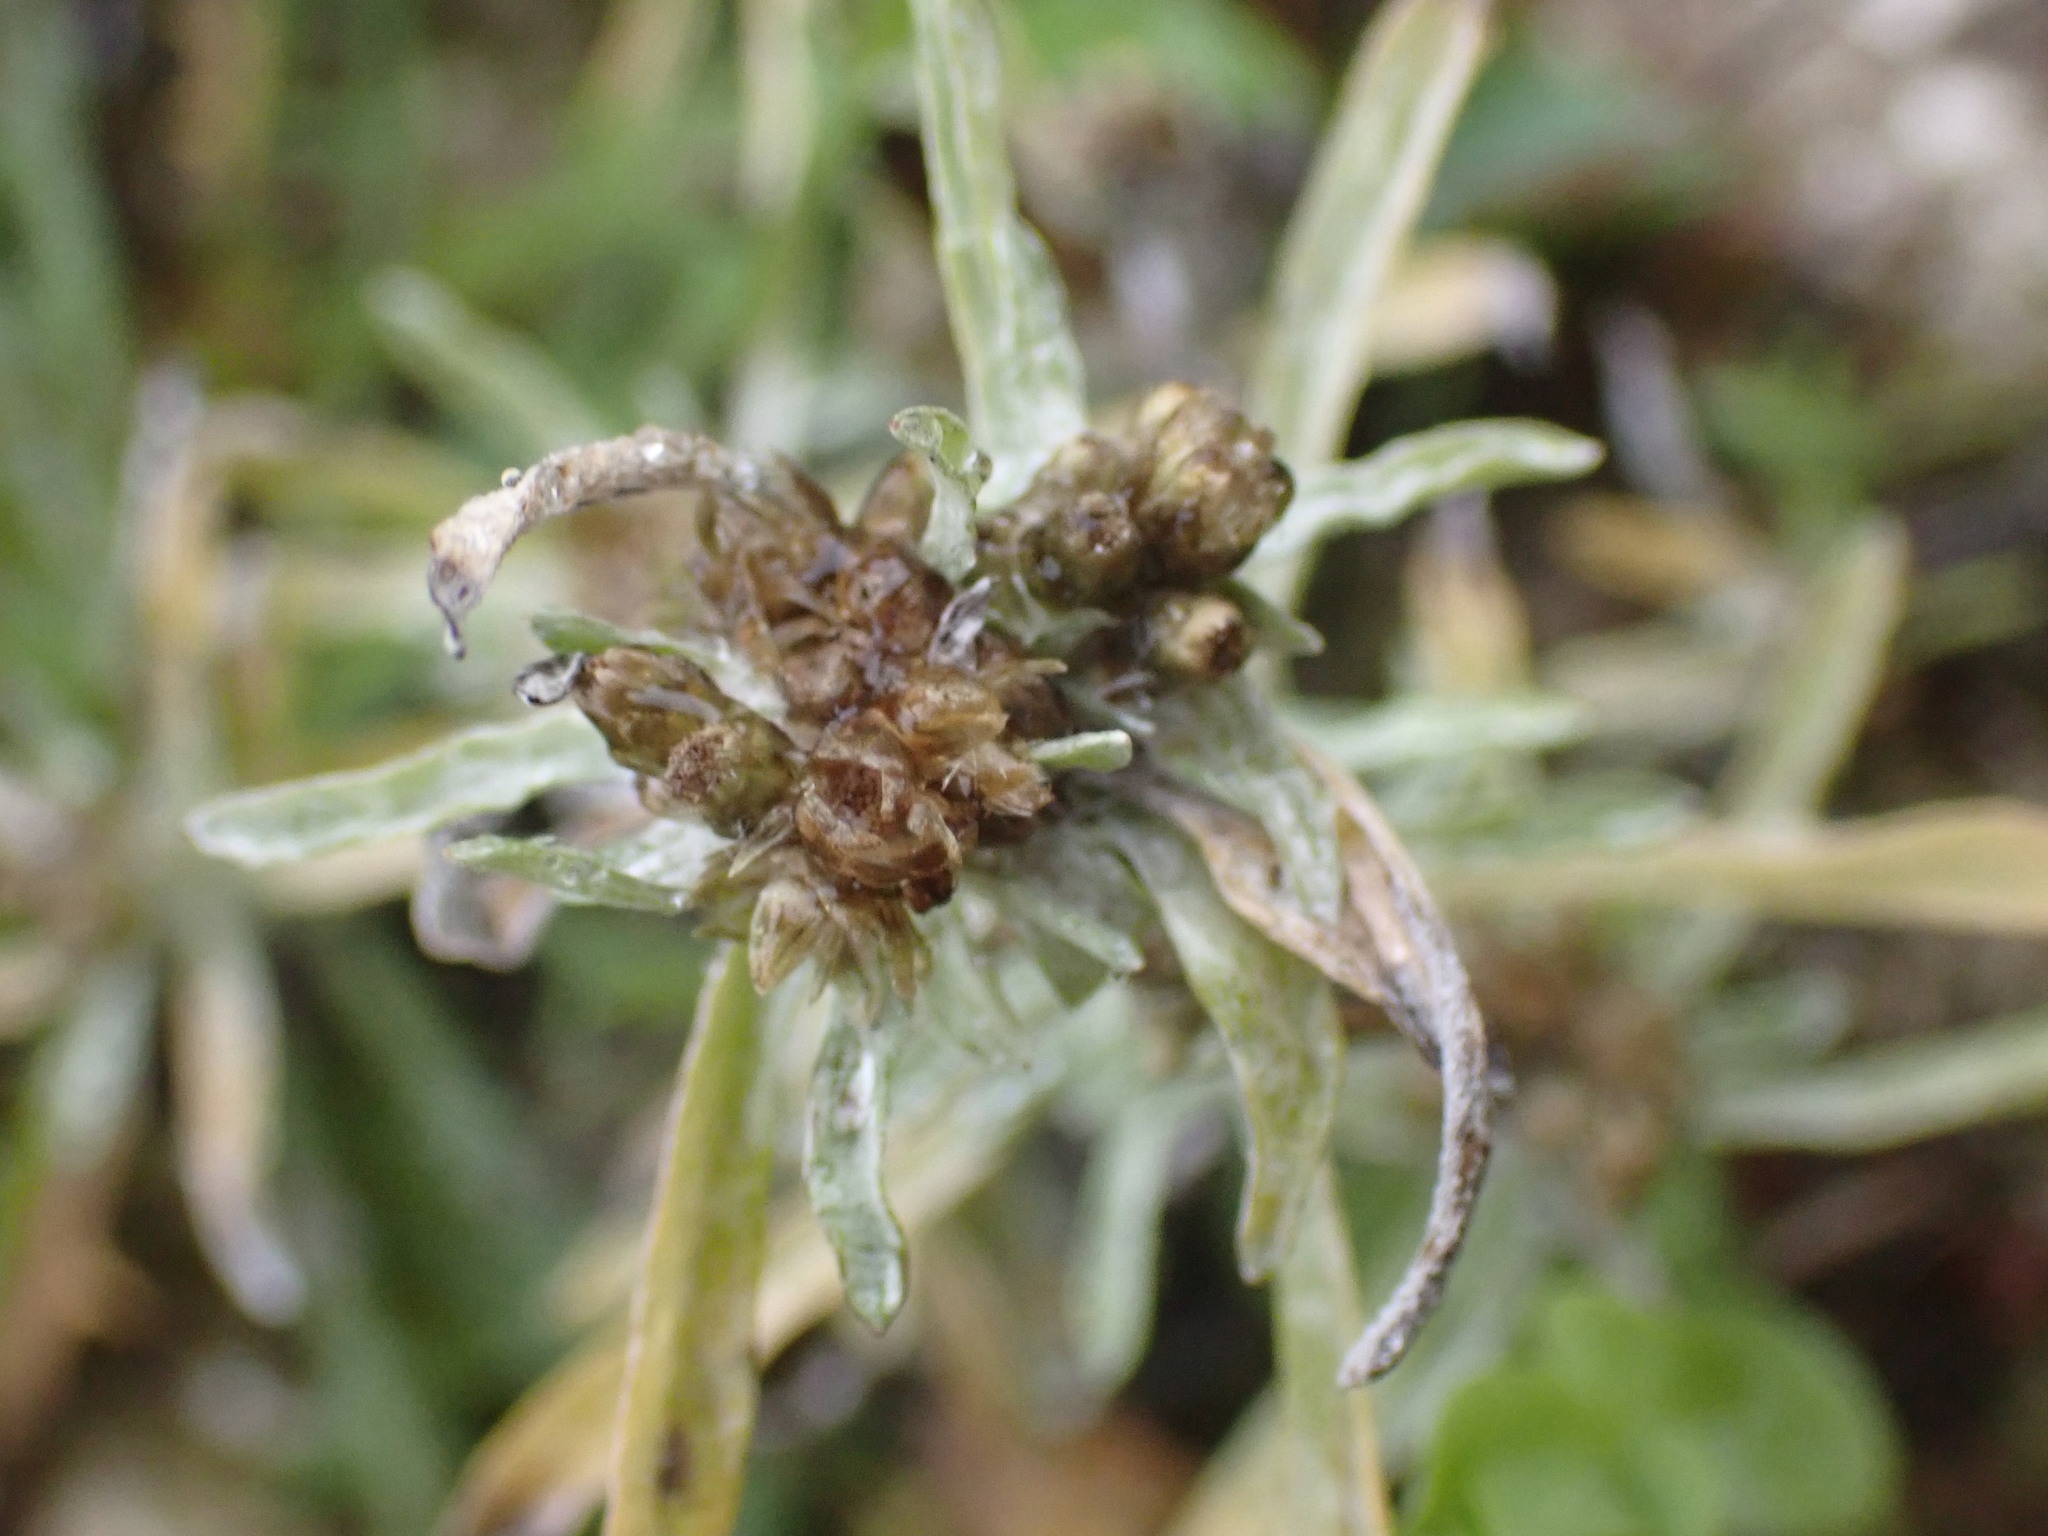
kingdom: Plantae
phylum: Tracheophyta
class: Magnoliopsida
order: Asterales
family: Asteraceae
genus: Gnaphalium
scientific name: Gnaphalium uliginosum
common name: Marsh cudweed
